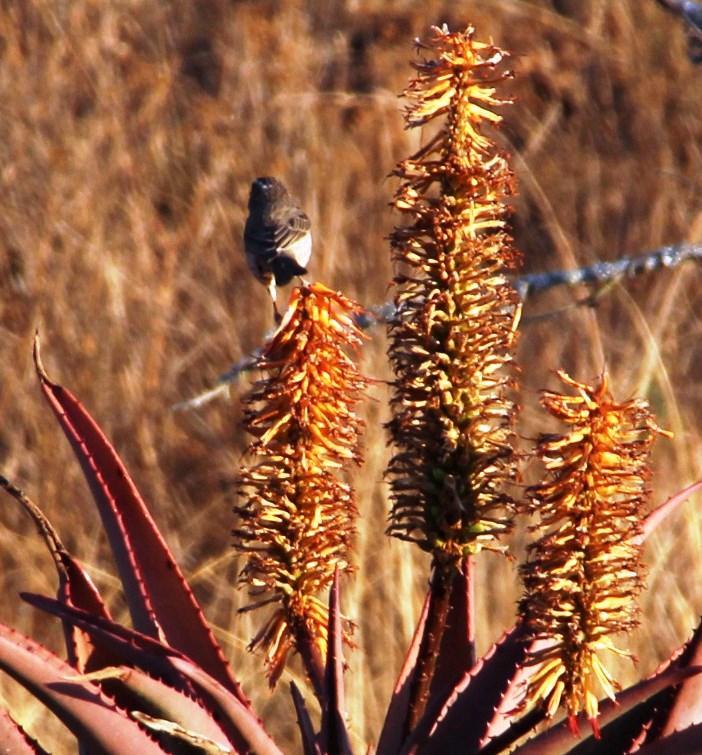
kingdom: Animalia
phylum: Chordata
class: Aves
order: Passeriformes
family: Fringillidae
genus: Crithagra
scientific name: Crithagra gularis
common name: Streaky-headed seedeater
